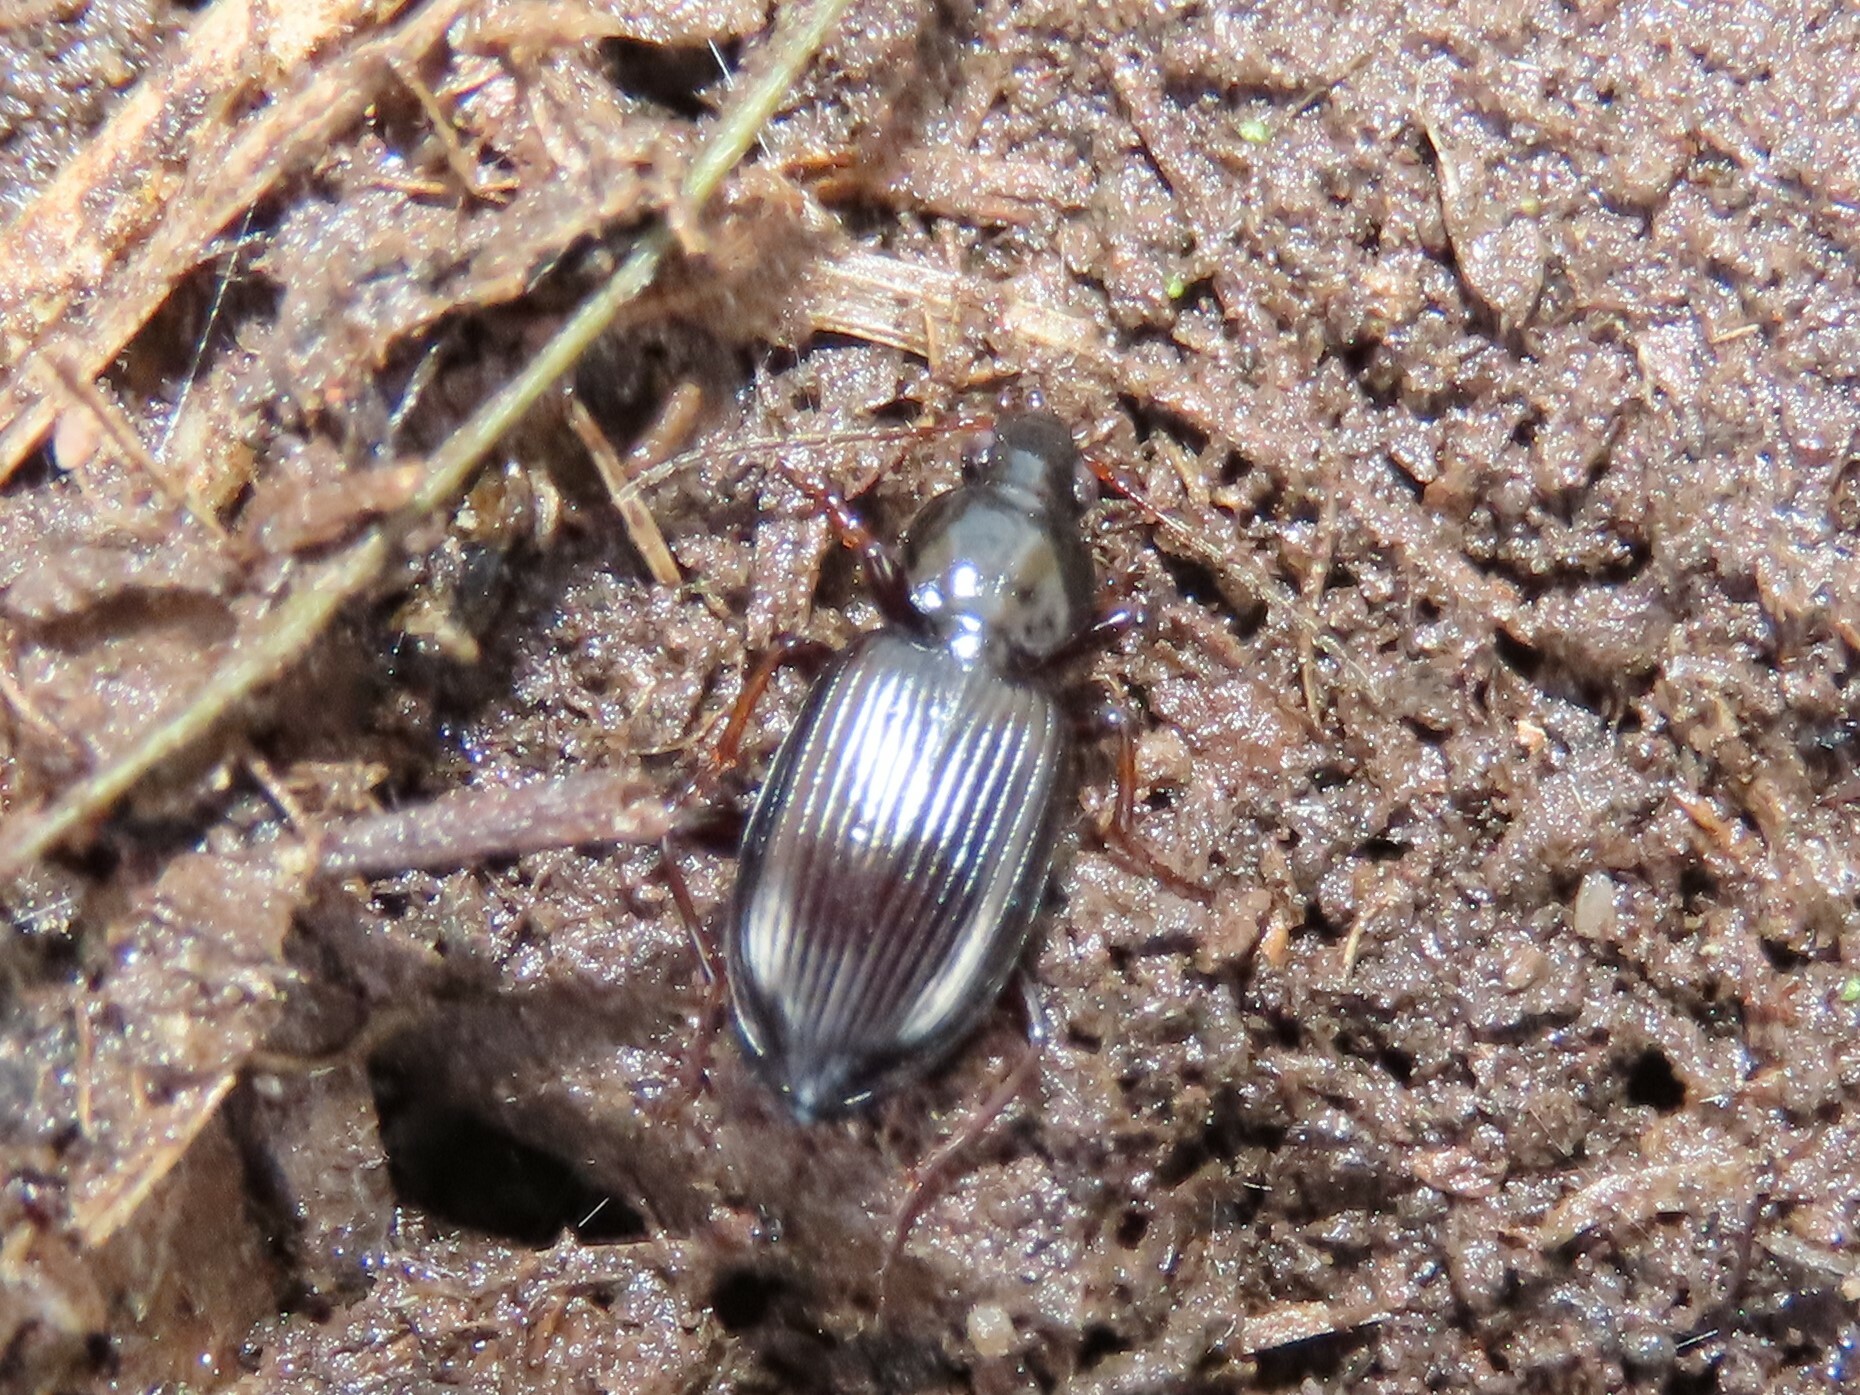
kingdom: Animalia
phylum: Arthropoda
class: Insecta
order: Coleoptera
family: Carabidae
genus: Agonum
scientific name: Agonum punctiforme
